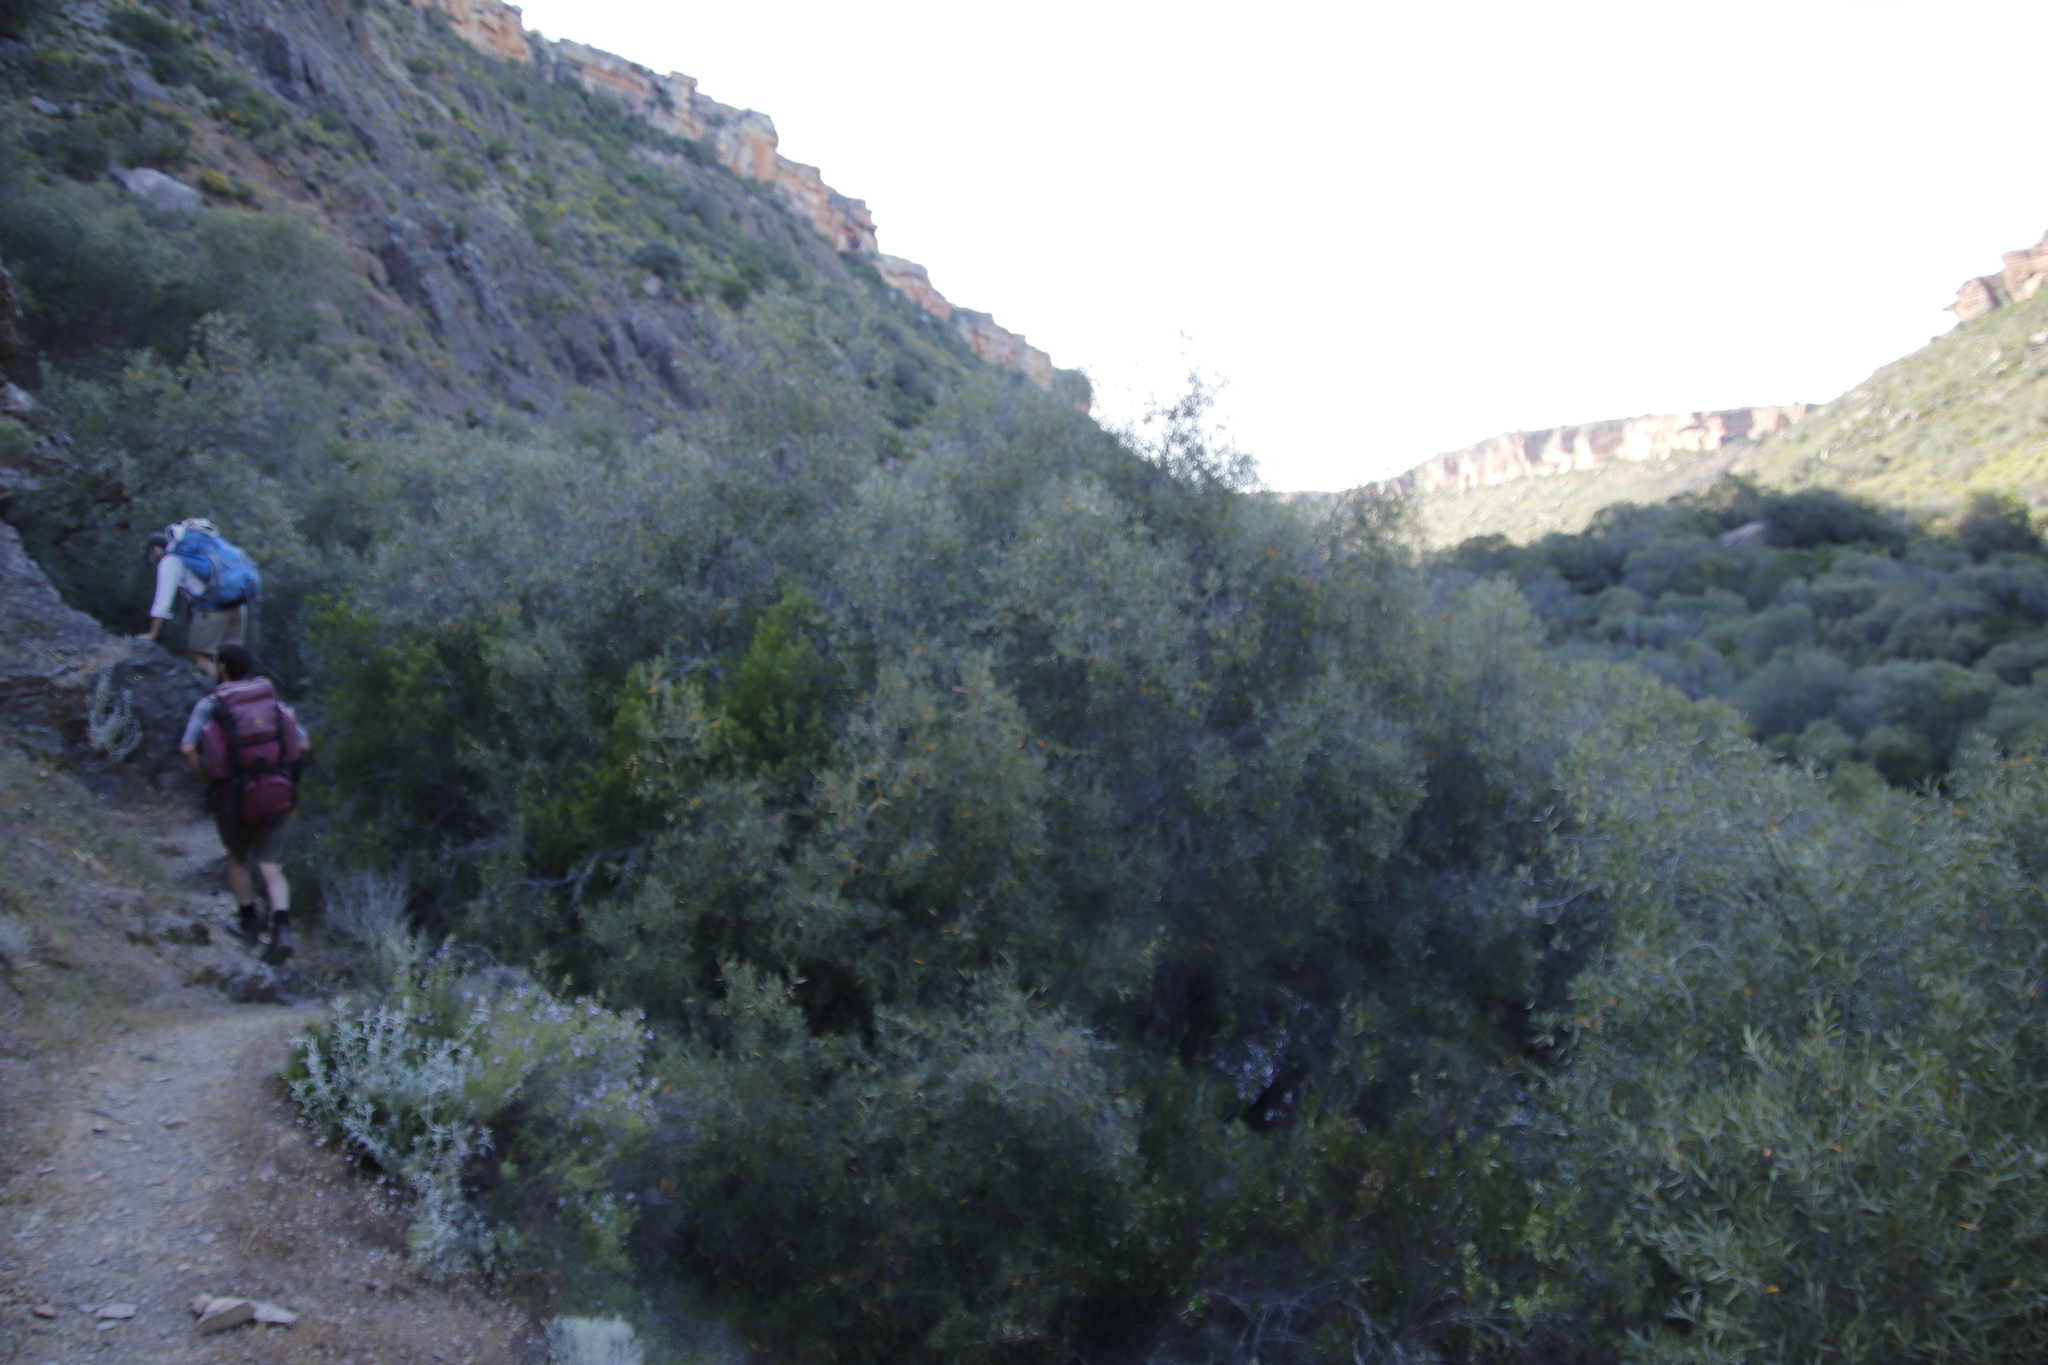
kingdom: Plantae
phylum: Tracheophyta
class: Magnoliopsida
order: Lamiales
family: Oleaceae
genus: Olea
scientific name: Olea europaea
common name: Olive
